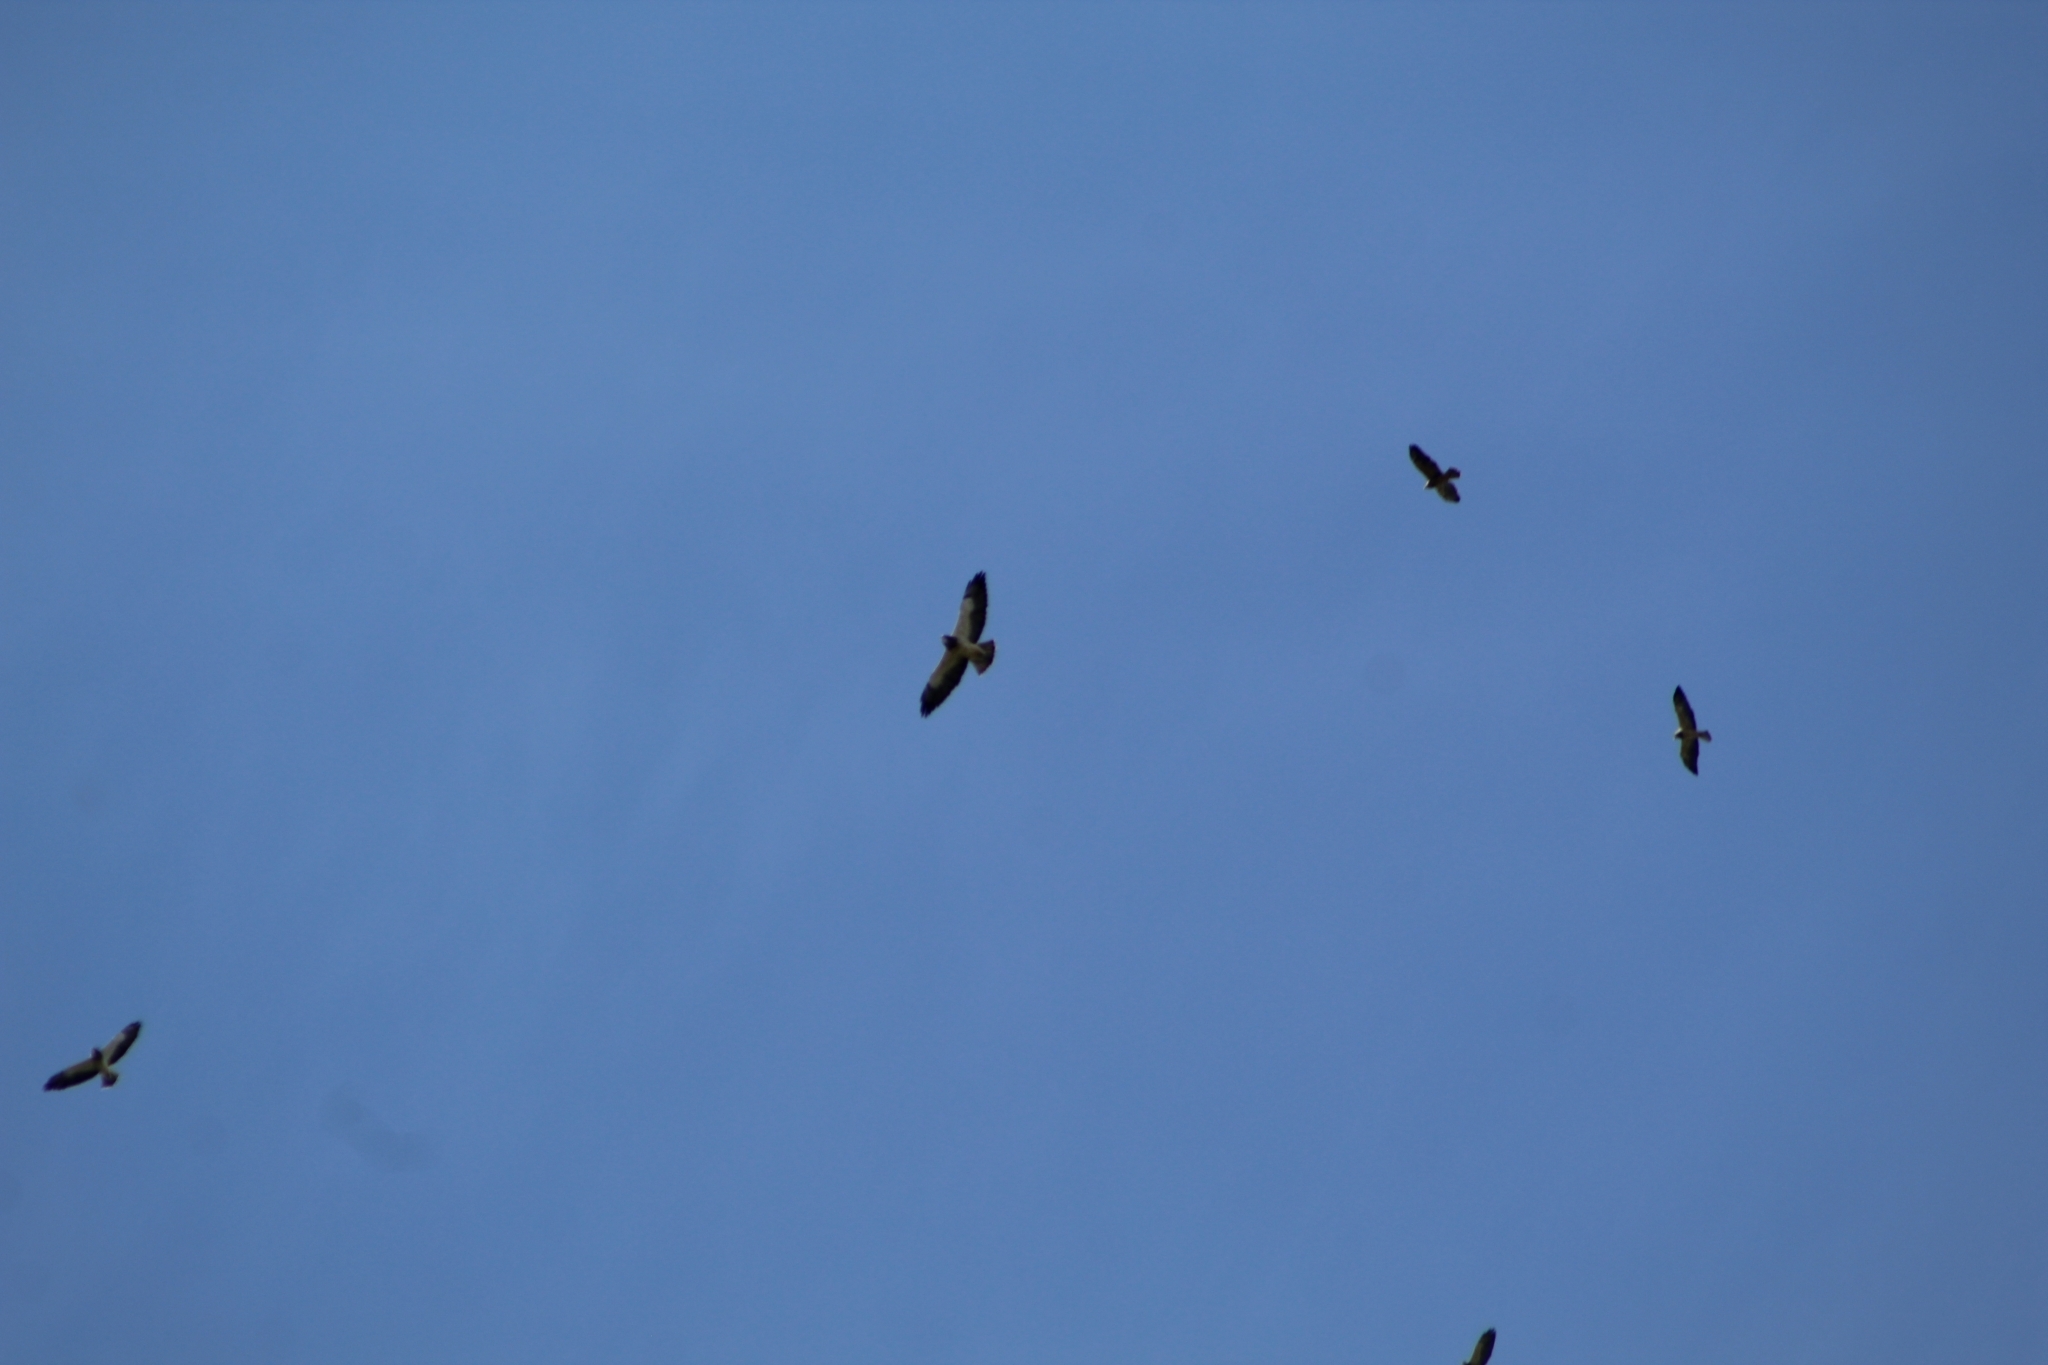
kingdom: Animalia
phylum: Chordata
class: Aves
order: Accipitriformes
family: Accipitridae
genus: Buteo
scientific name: Buteo swainsoni
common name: Swainson's hawk
